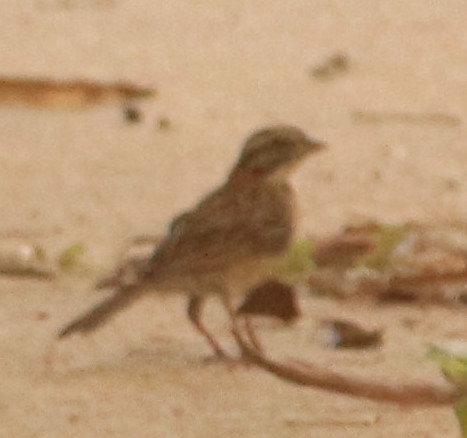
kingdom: Animalia
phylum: Chordata
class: Aves
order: Passeriformes
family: Passerellidae
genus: Zonotrichia
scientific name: Zonotrichia capensis
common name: Rufous-collared sparrow
